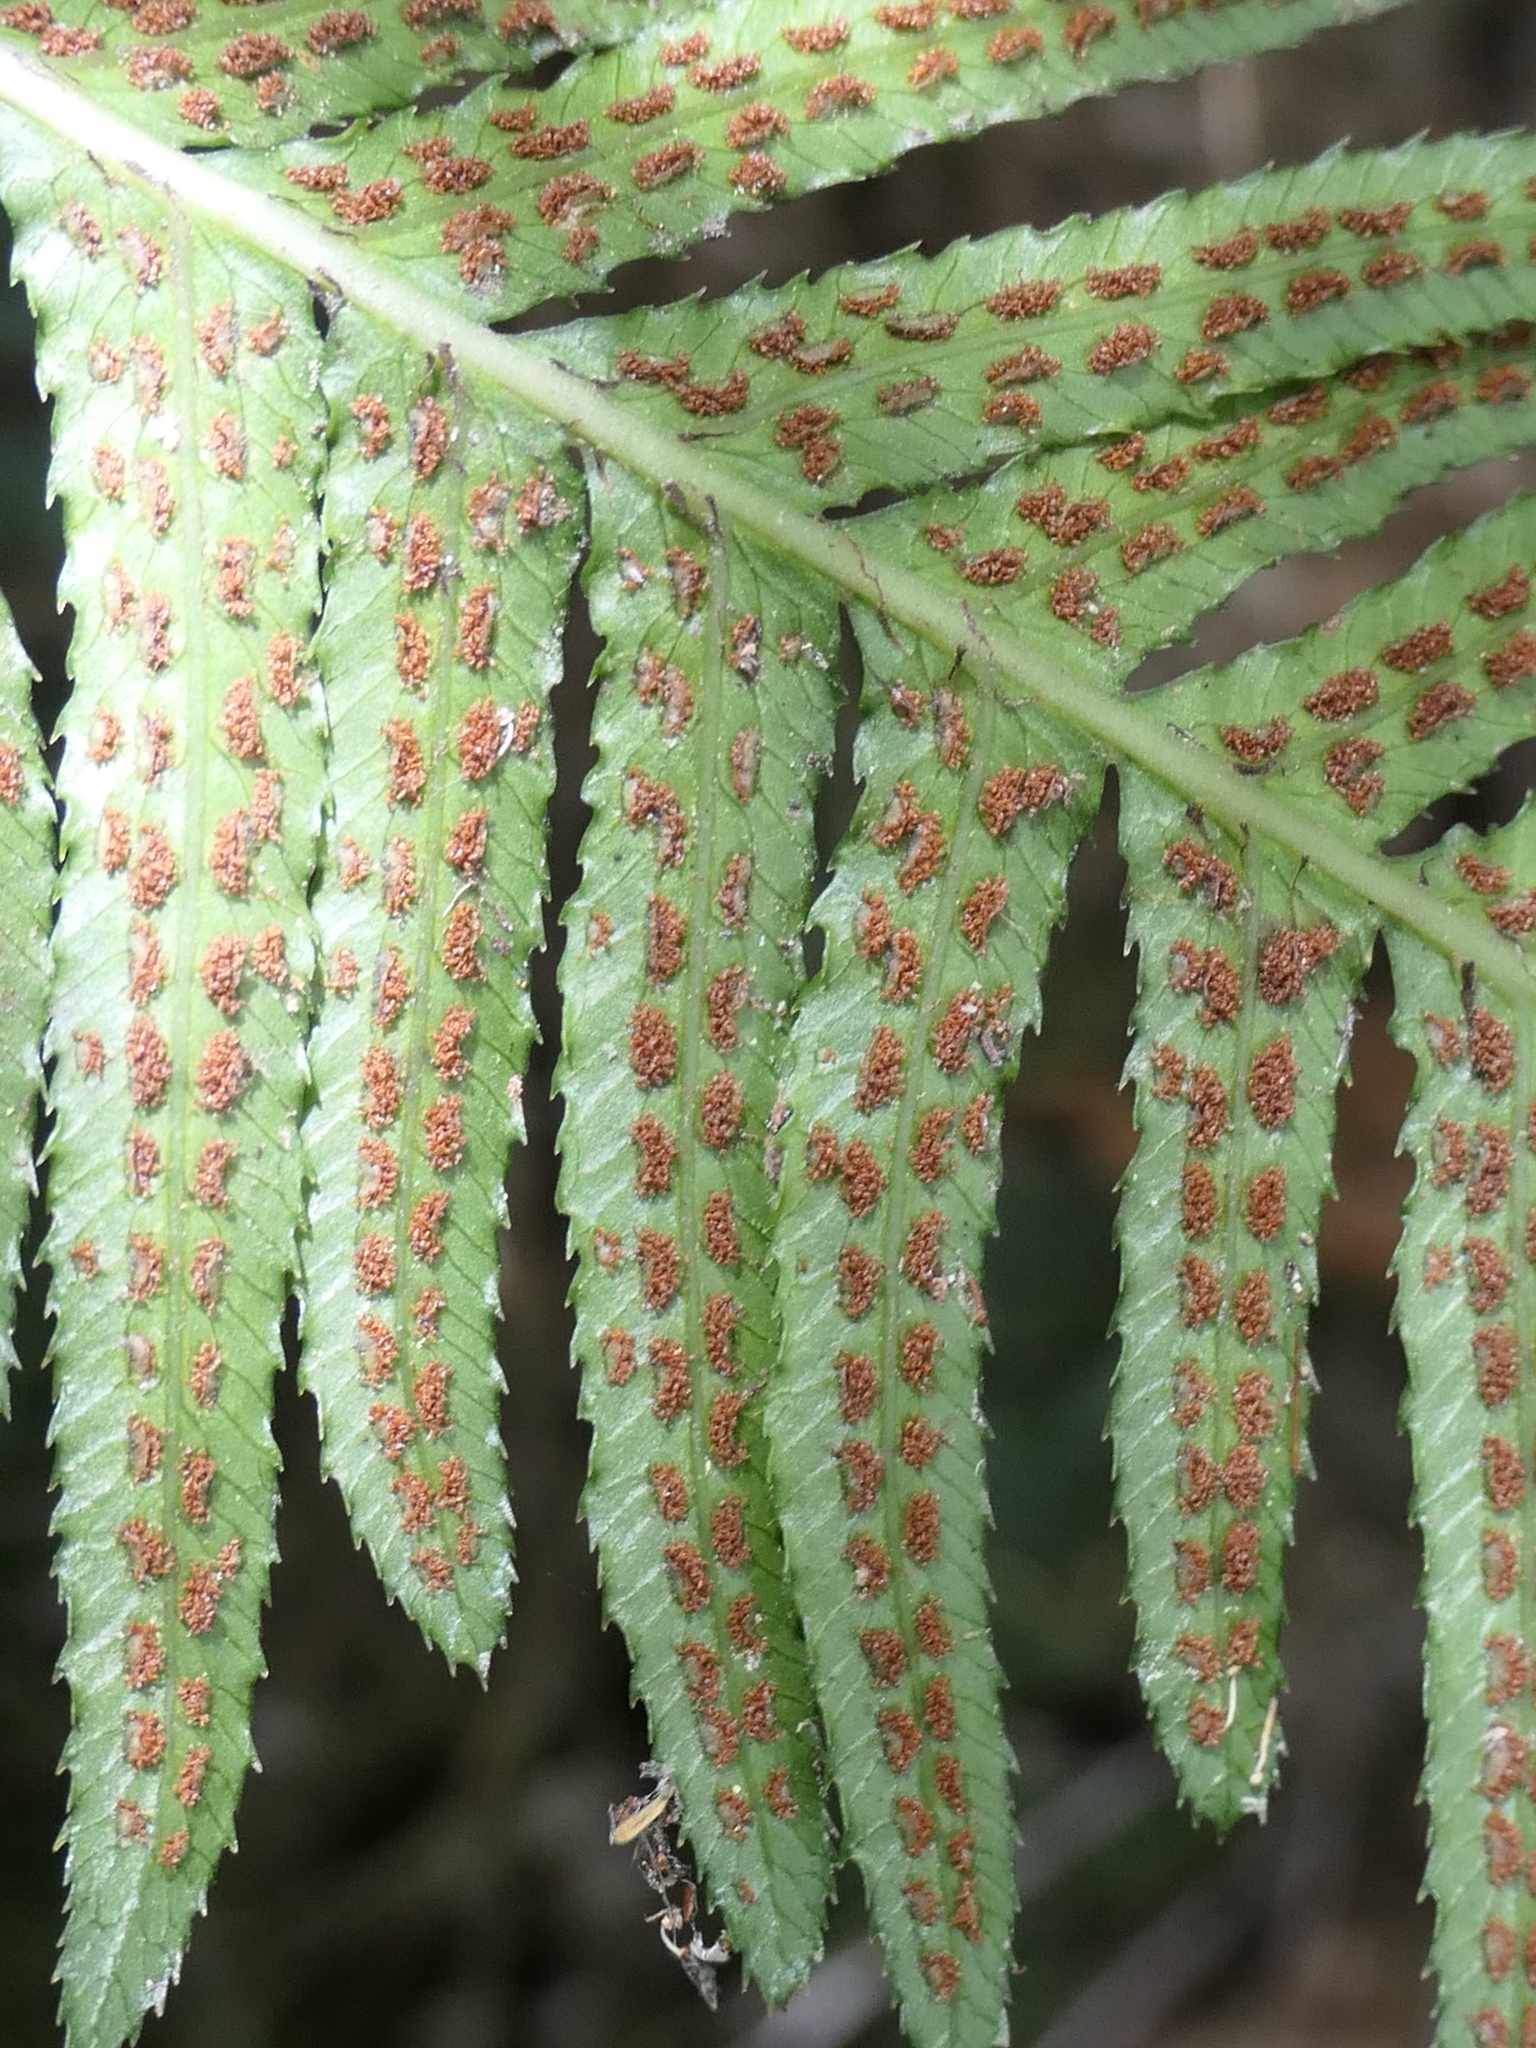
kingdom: Plantae
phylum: Tracheophyta
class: Polypodiopsida
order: Polypodiales
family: Blechnaceae
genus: Doodia
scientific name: Doodia australis
